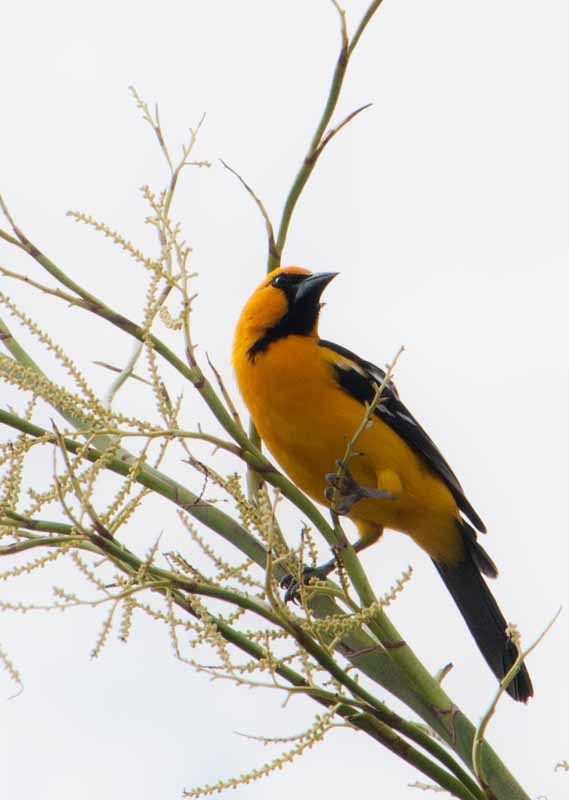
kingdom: Animalia
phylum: Chordata
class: Aves
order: Passeriformes
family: Icteridae
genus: Icterus
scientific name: Icterus gularis
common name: Altamira oriole
